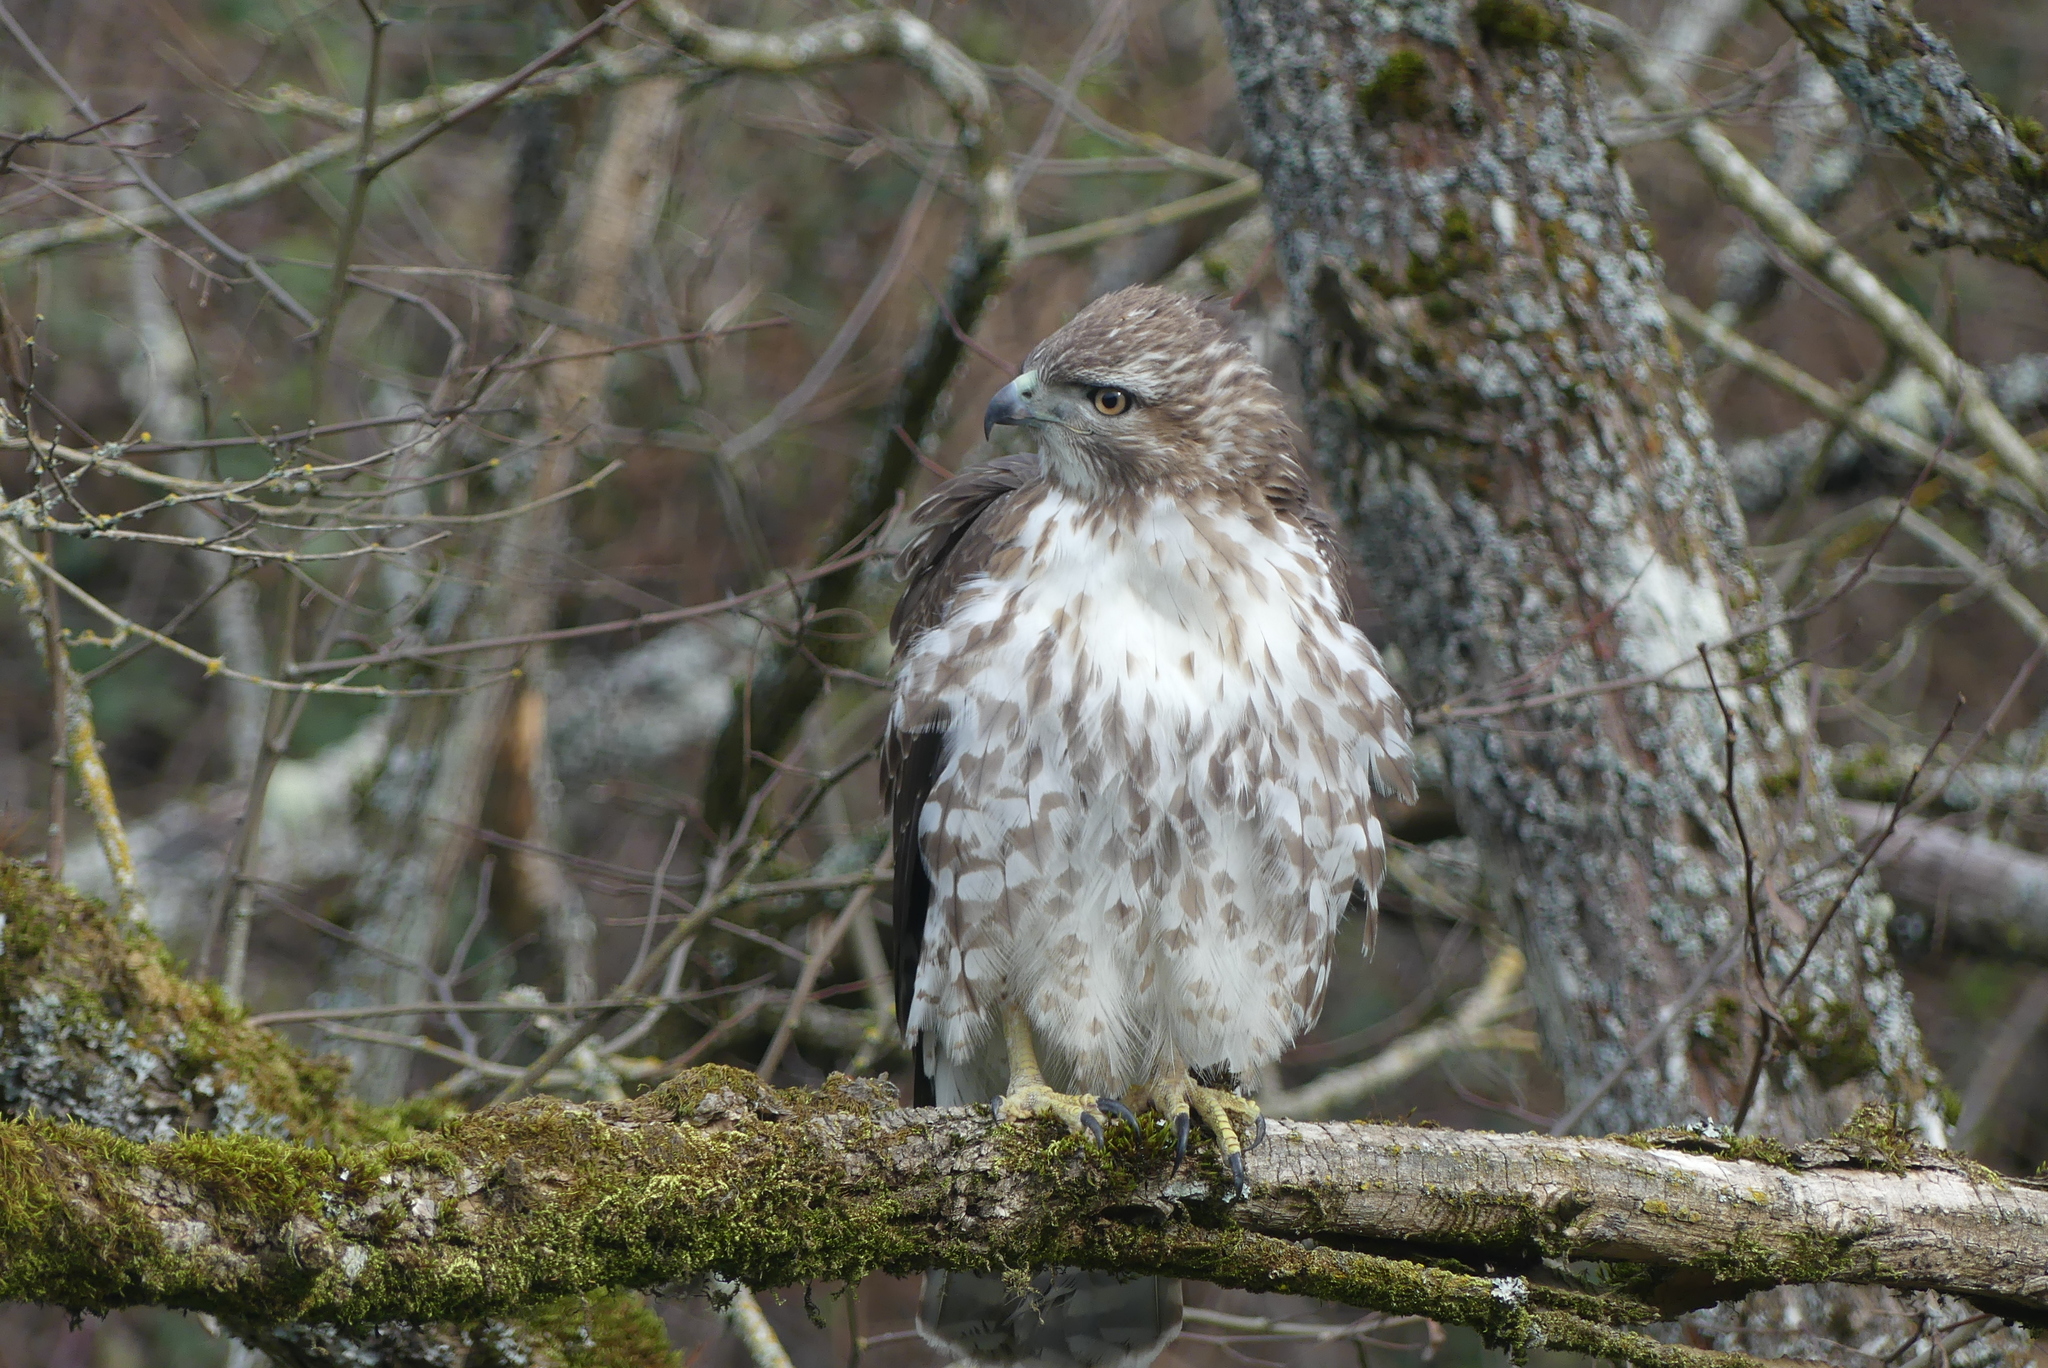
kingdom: Animalia
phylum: Chordata
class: Aves
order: Accipitriformes
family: Accipitridae
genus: Buteo
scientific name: Buteo jamaicensis
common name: Red-tailed hawk
